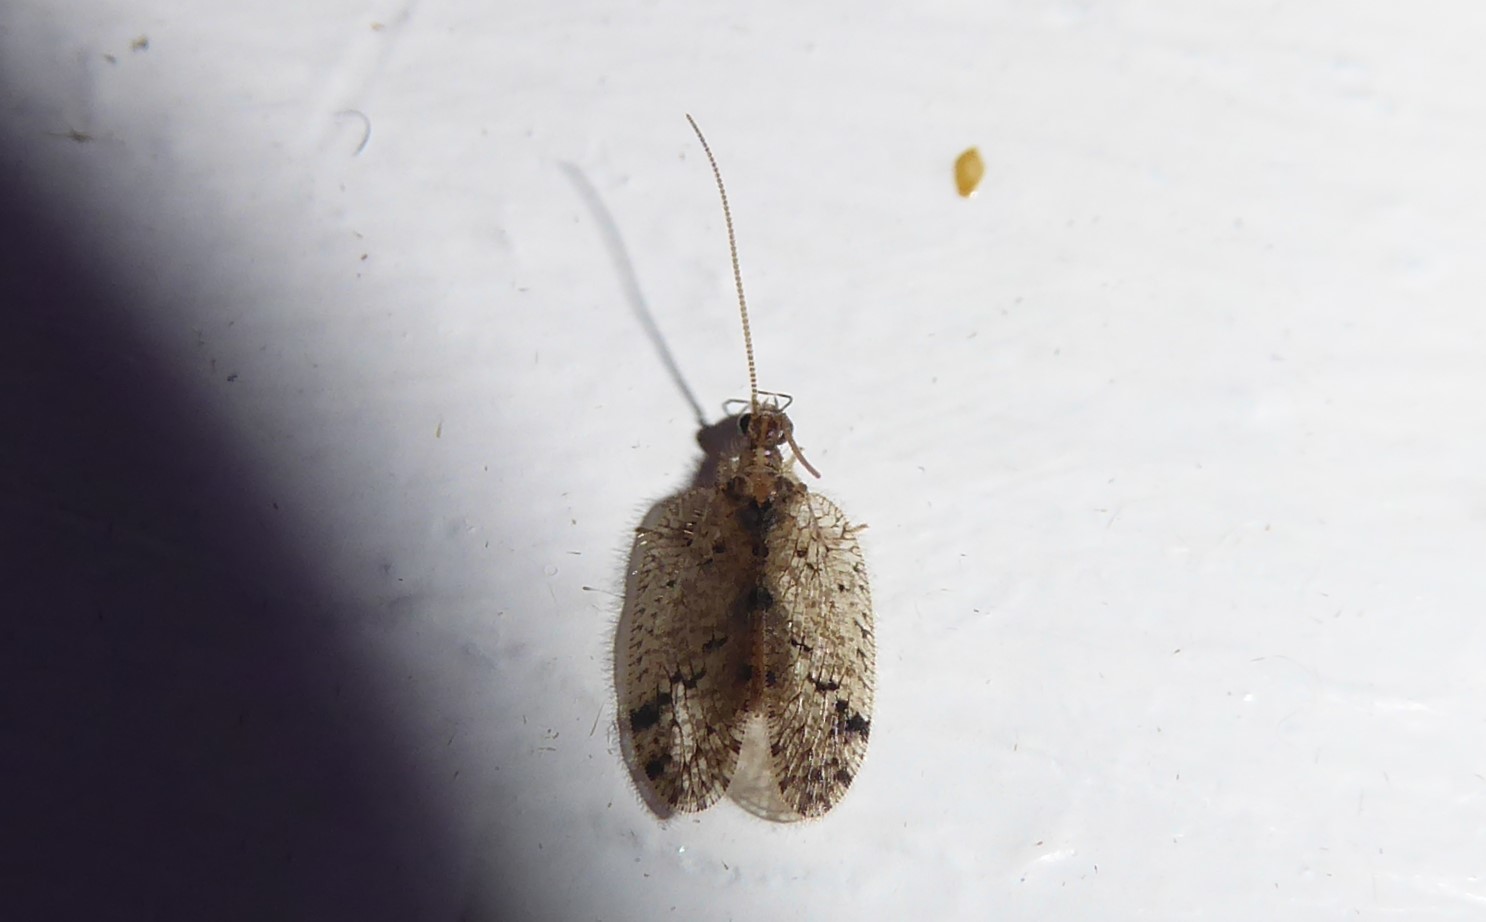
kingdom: Animalia
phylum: Arthropoda
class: Insecta
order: Neuroptera
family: Hemerobiidae
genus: Psectra
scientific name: Psectra nakaharai
